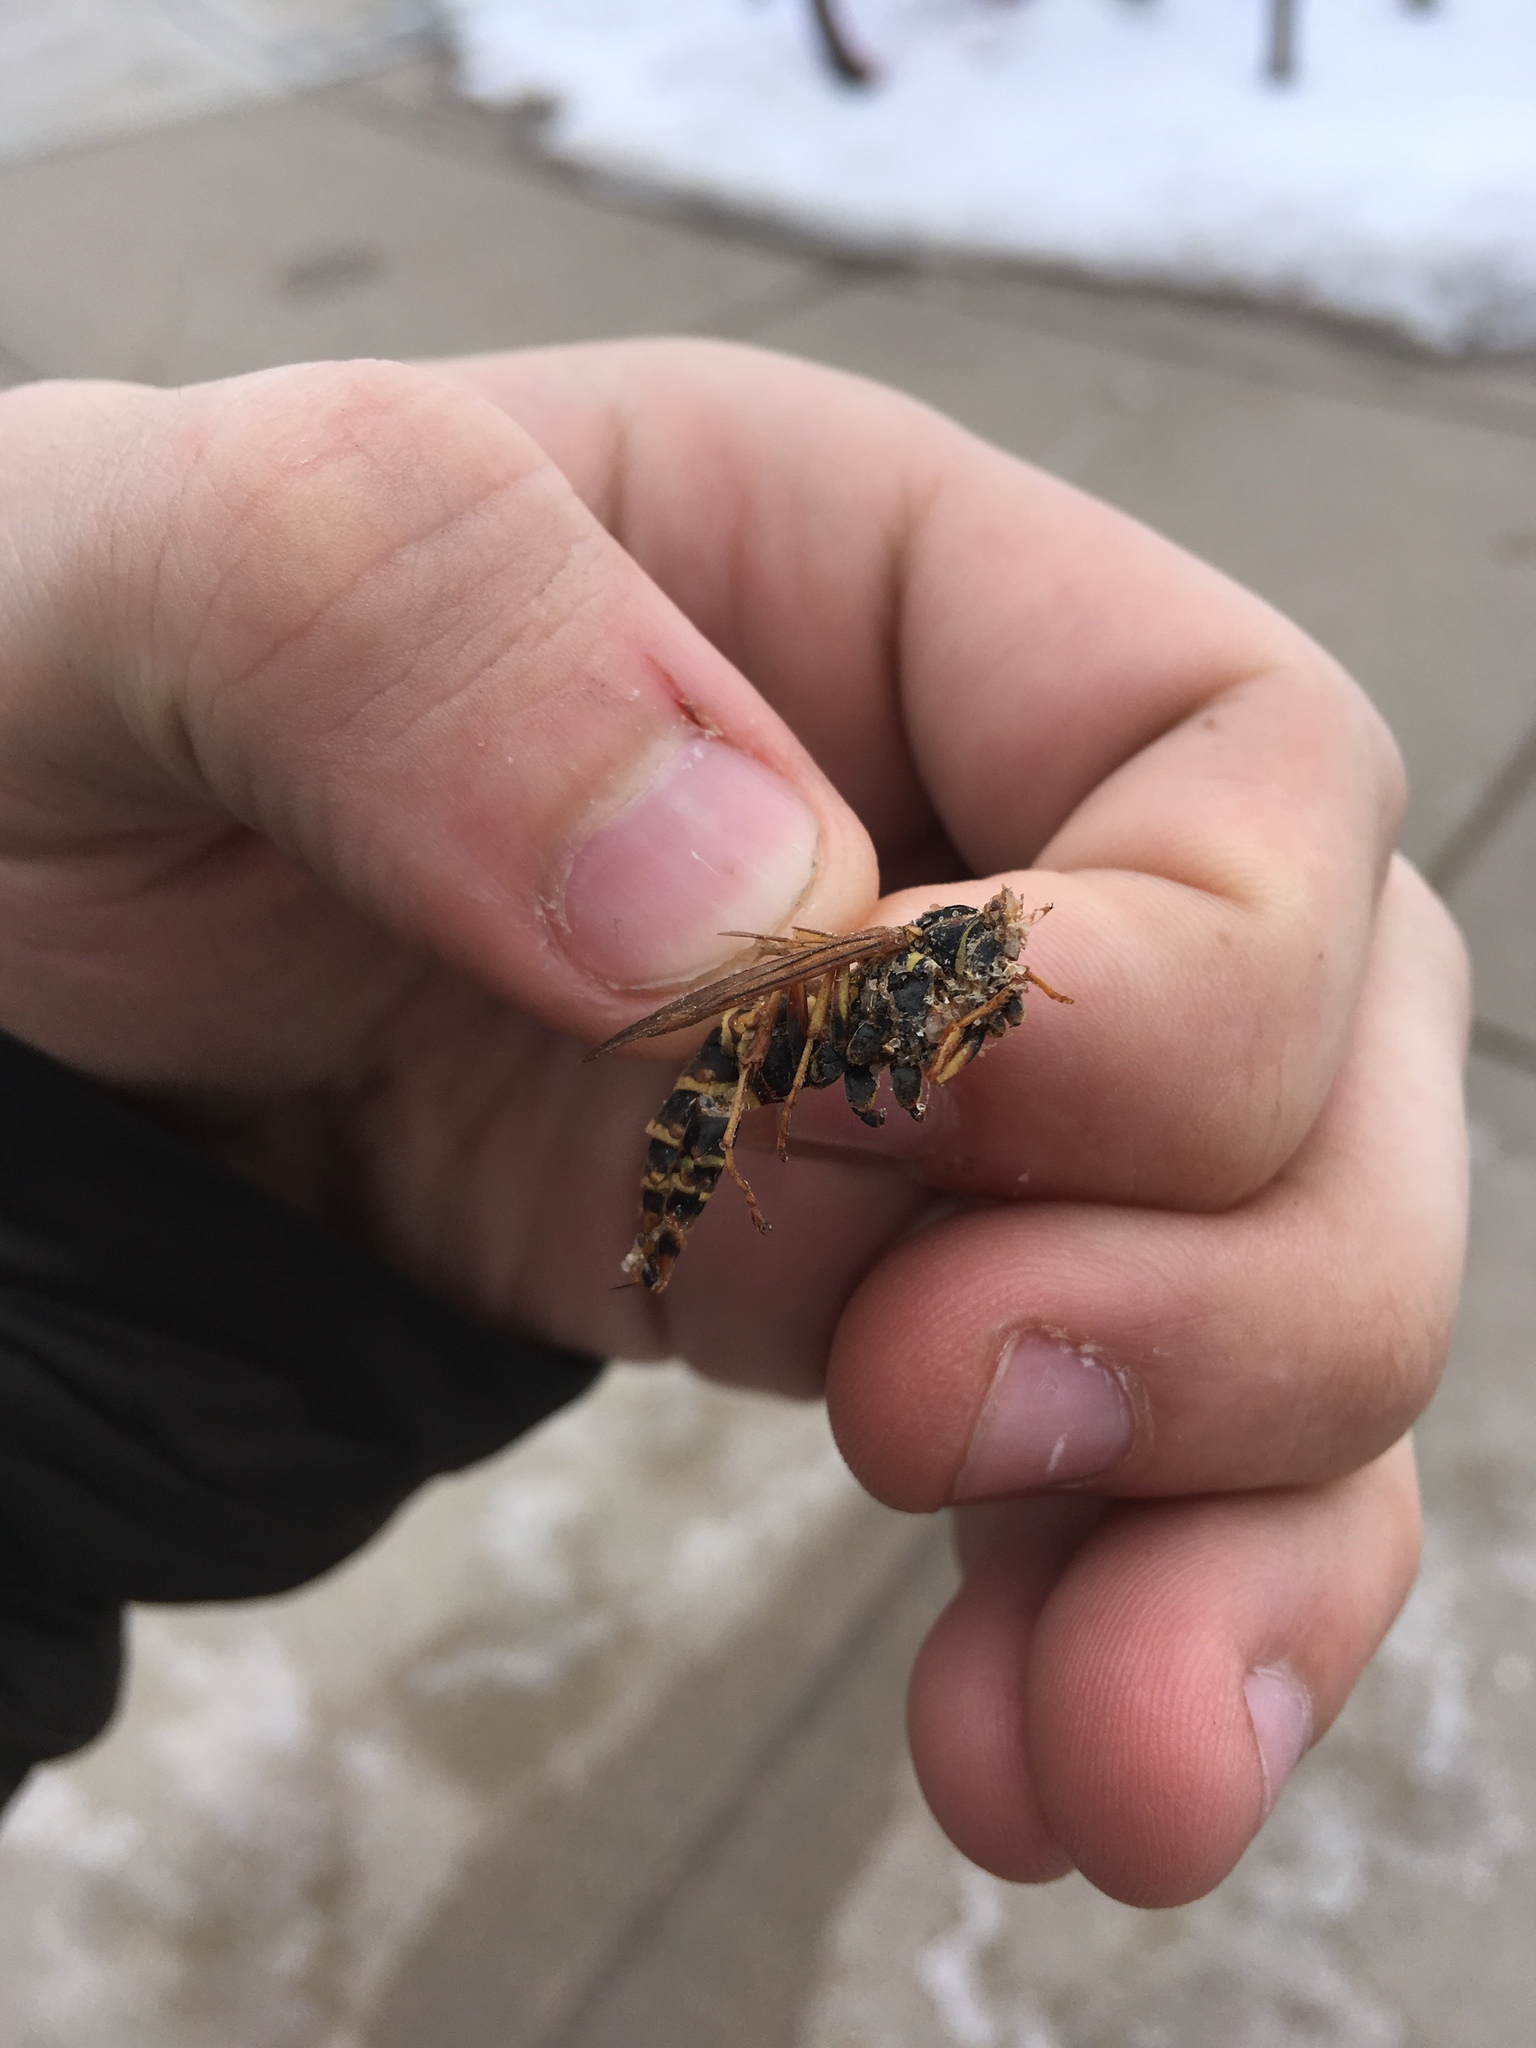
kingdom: Animalia
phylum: Arthropoda
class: Insecta
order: Hymenoptera
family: Eumenidae
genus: Polistes
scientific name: Polistes fuscatus
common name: Dark paper wasp
